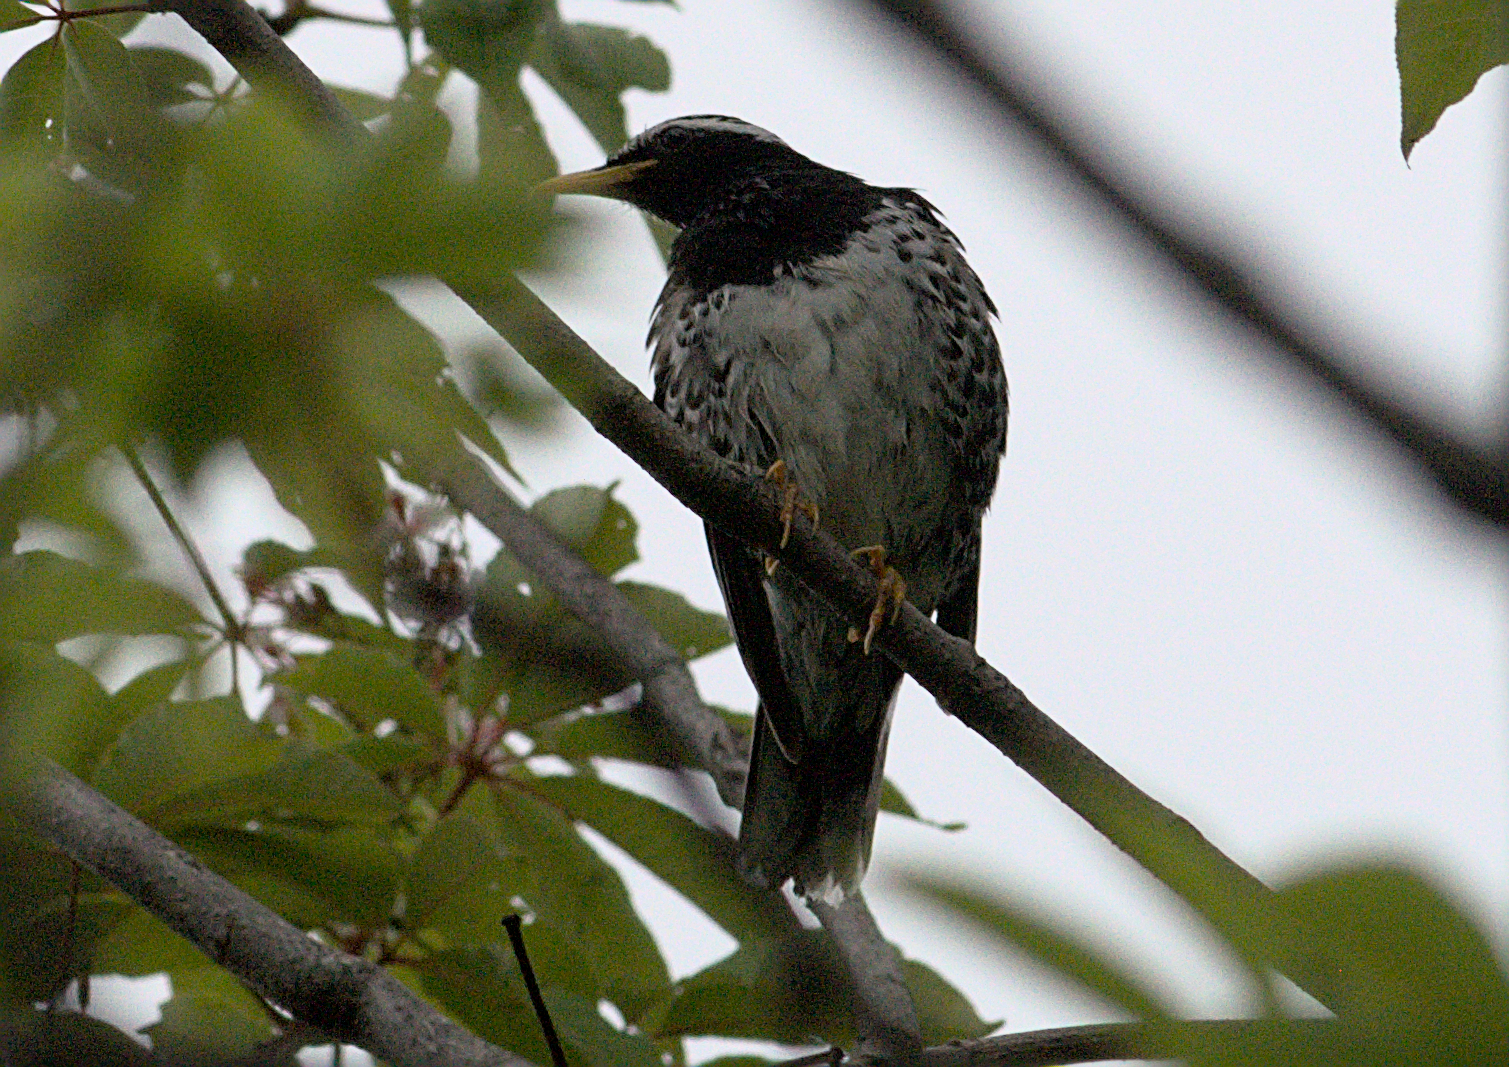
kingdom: Animalia
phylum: Chordata
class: Aves
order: Passeriformes
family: Turdidae
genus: Geokichla
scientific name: Geokichla wardii
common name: Pied thrush
